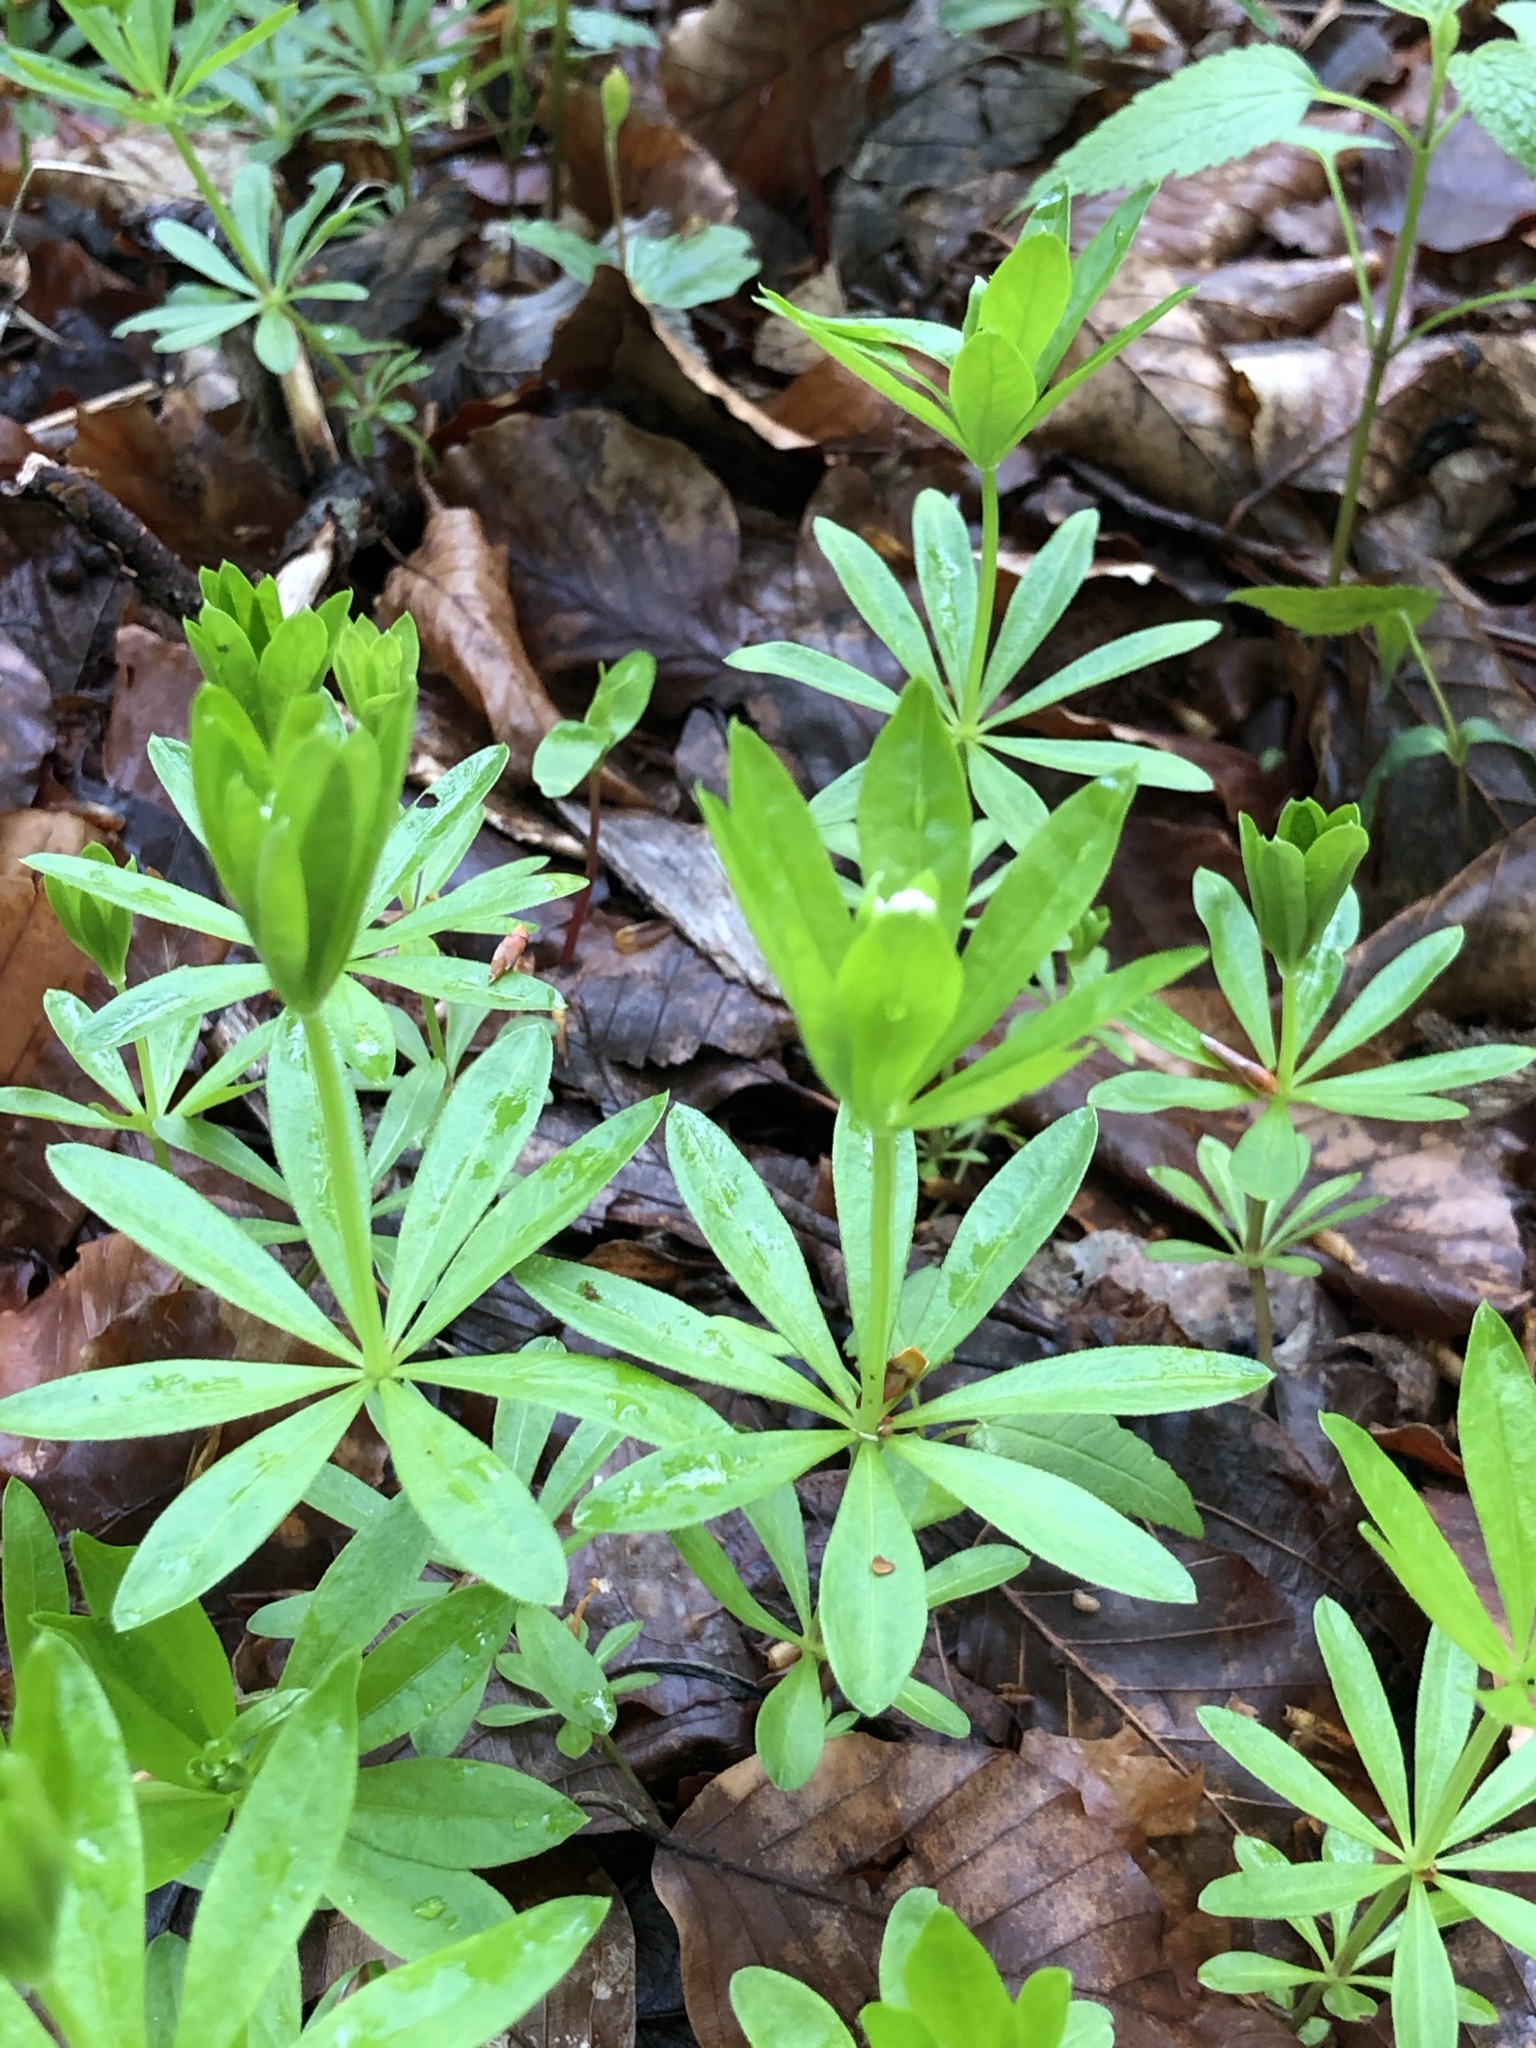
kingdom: Plantae
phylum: Tracheophyta
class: Magnoliopsida
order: Gentianales
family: Rubiaceae
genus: Galium
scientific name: Galium odoratum
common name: Sweet woodruff
